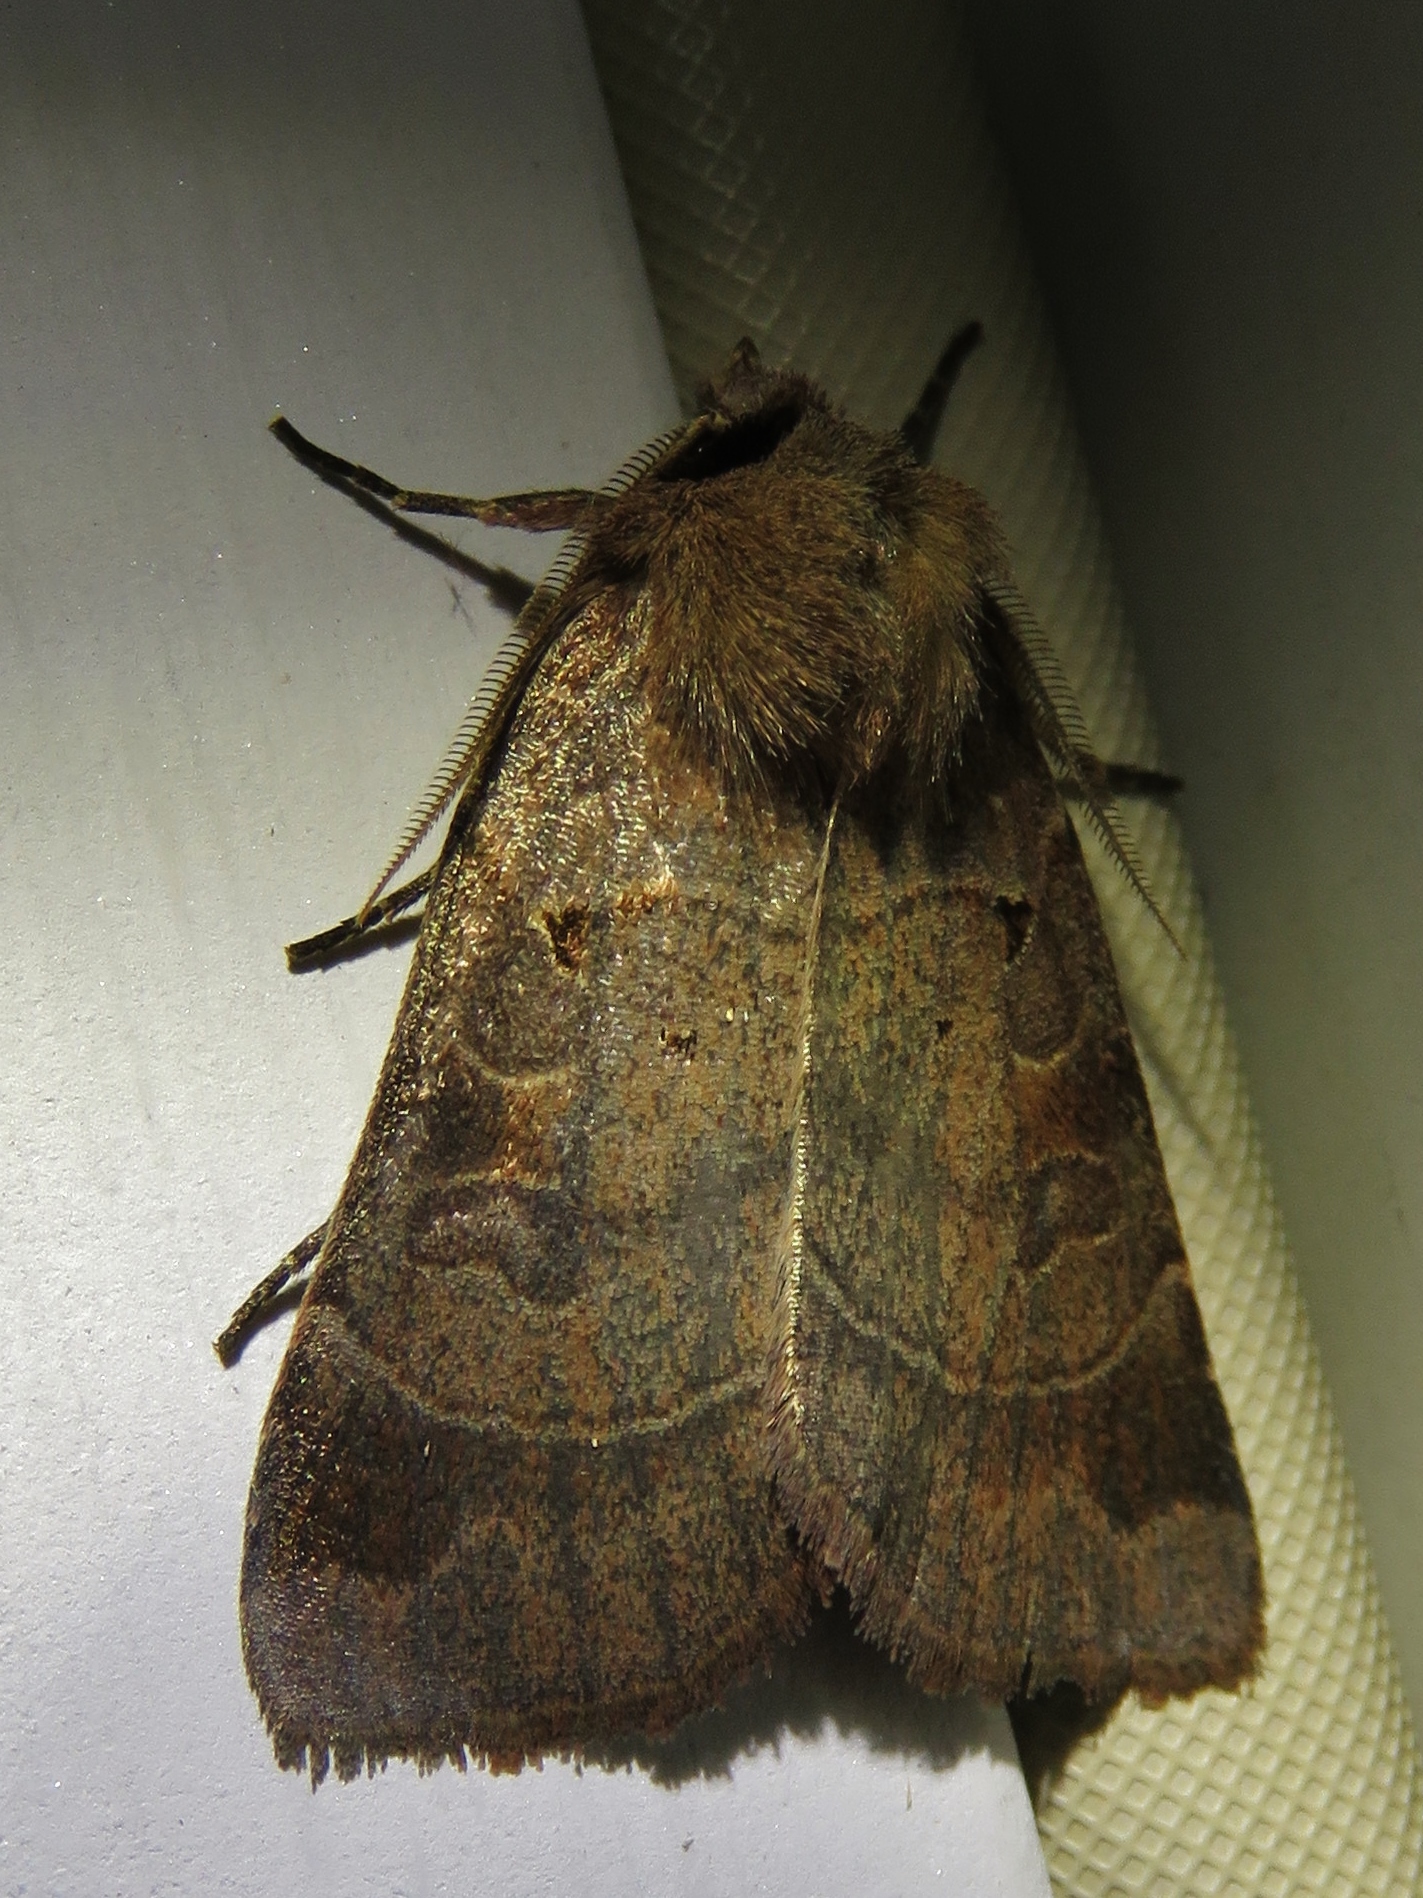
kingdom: Animalia
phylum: Arthropoda
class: Insecta
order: Lepidoptera
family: Noctuidae
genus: Agnorisma
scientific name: Agnorisma badinodis
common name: Pale-banded dart
